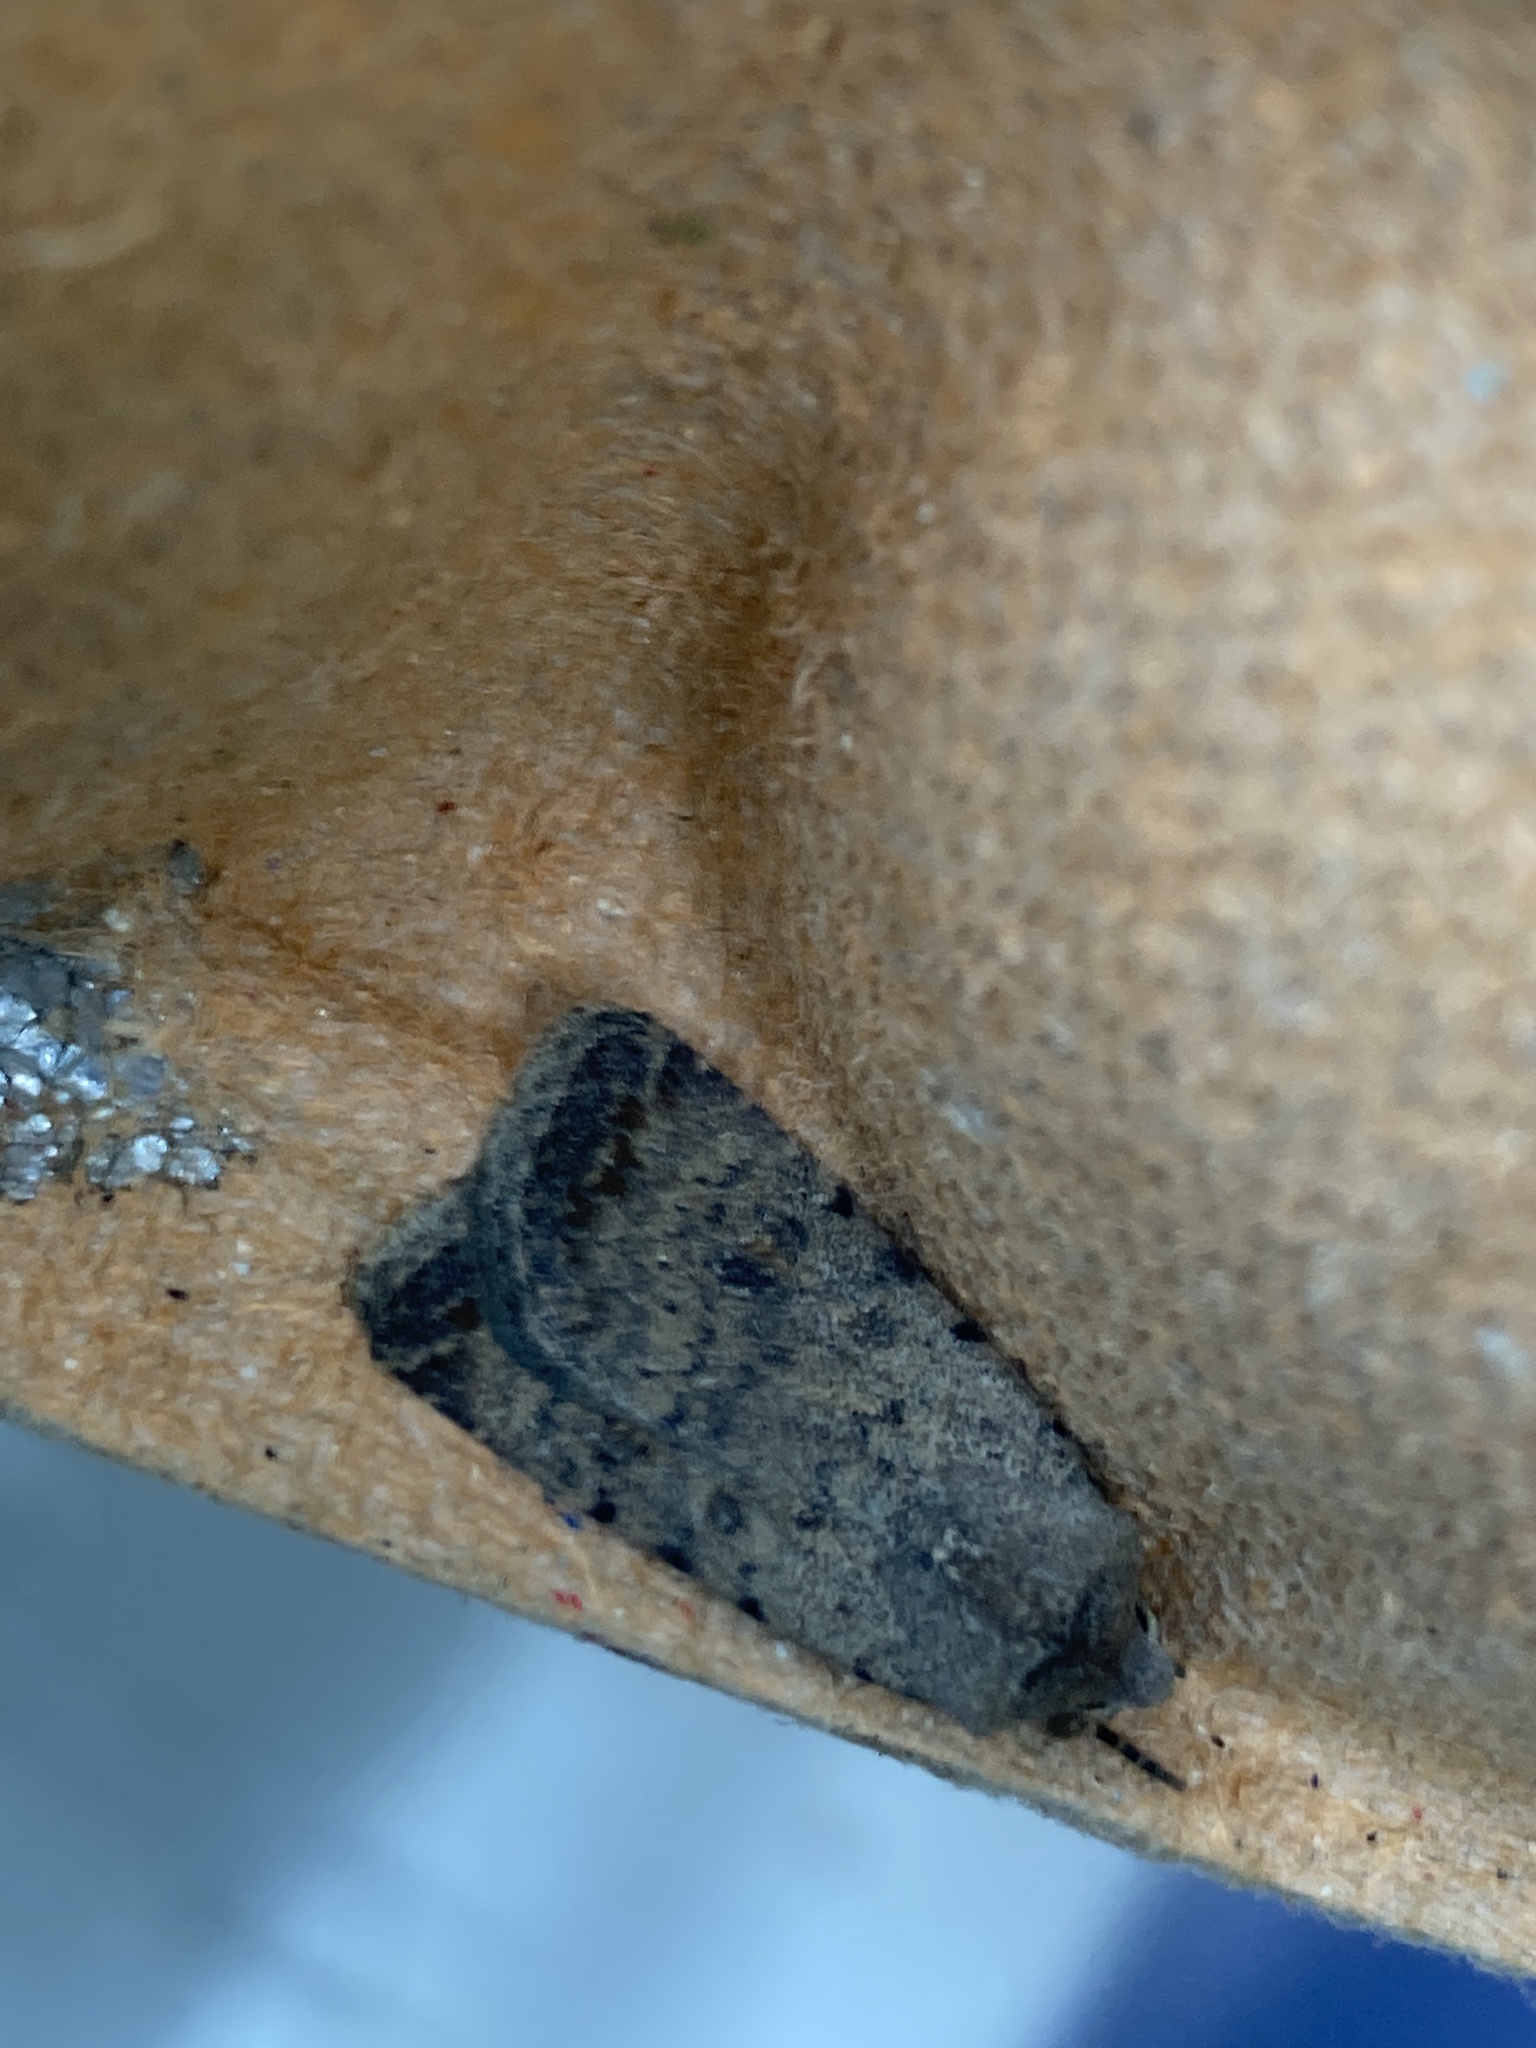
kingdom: Animalia
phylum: Arthropoda
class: Insecta
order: Lepidoptera
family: Noctuidae
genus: Caradrina
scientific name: Caradrina clavipalpis
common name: Pale mottled willow
